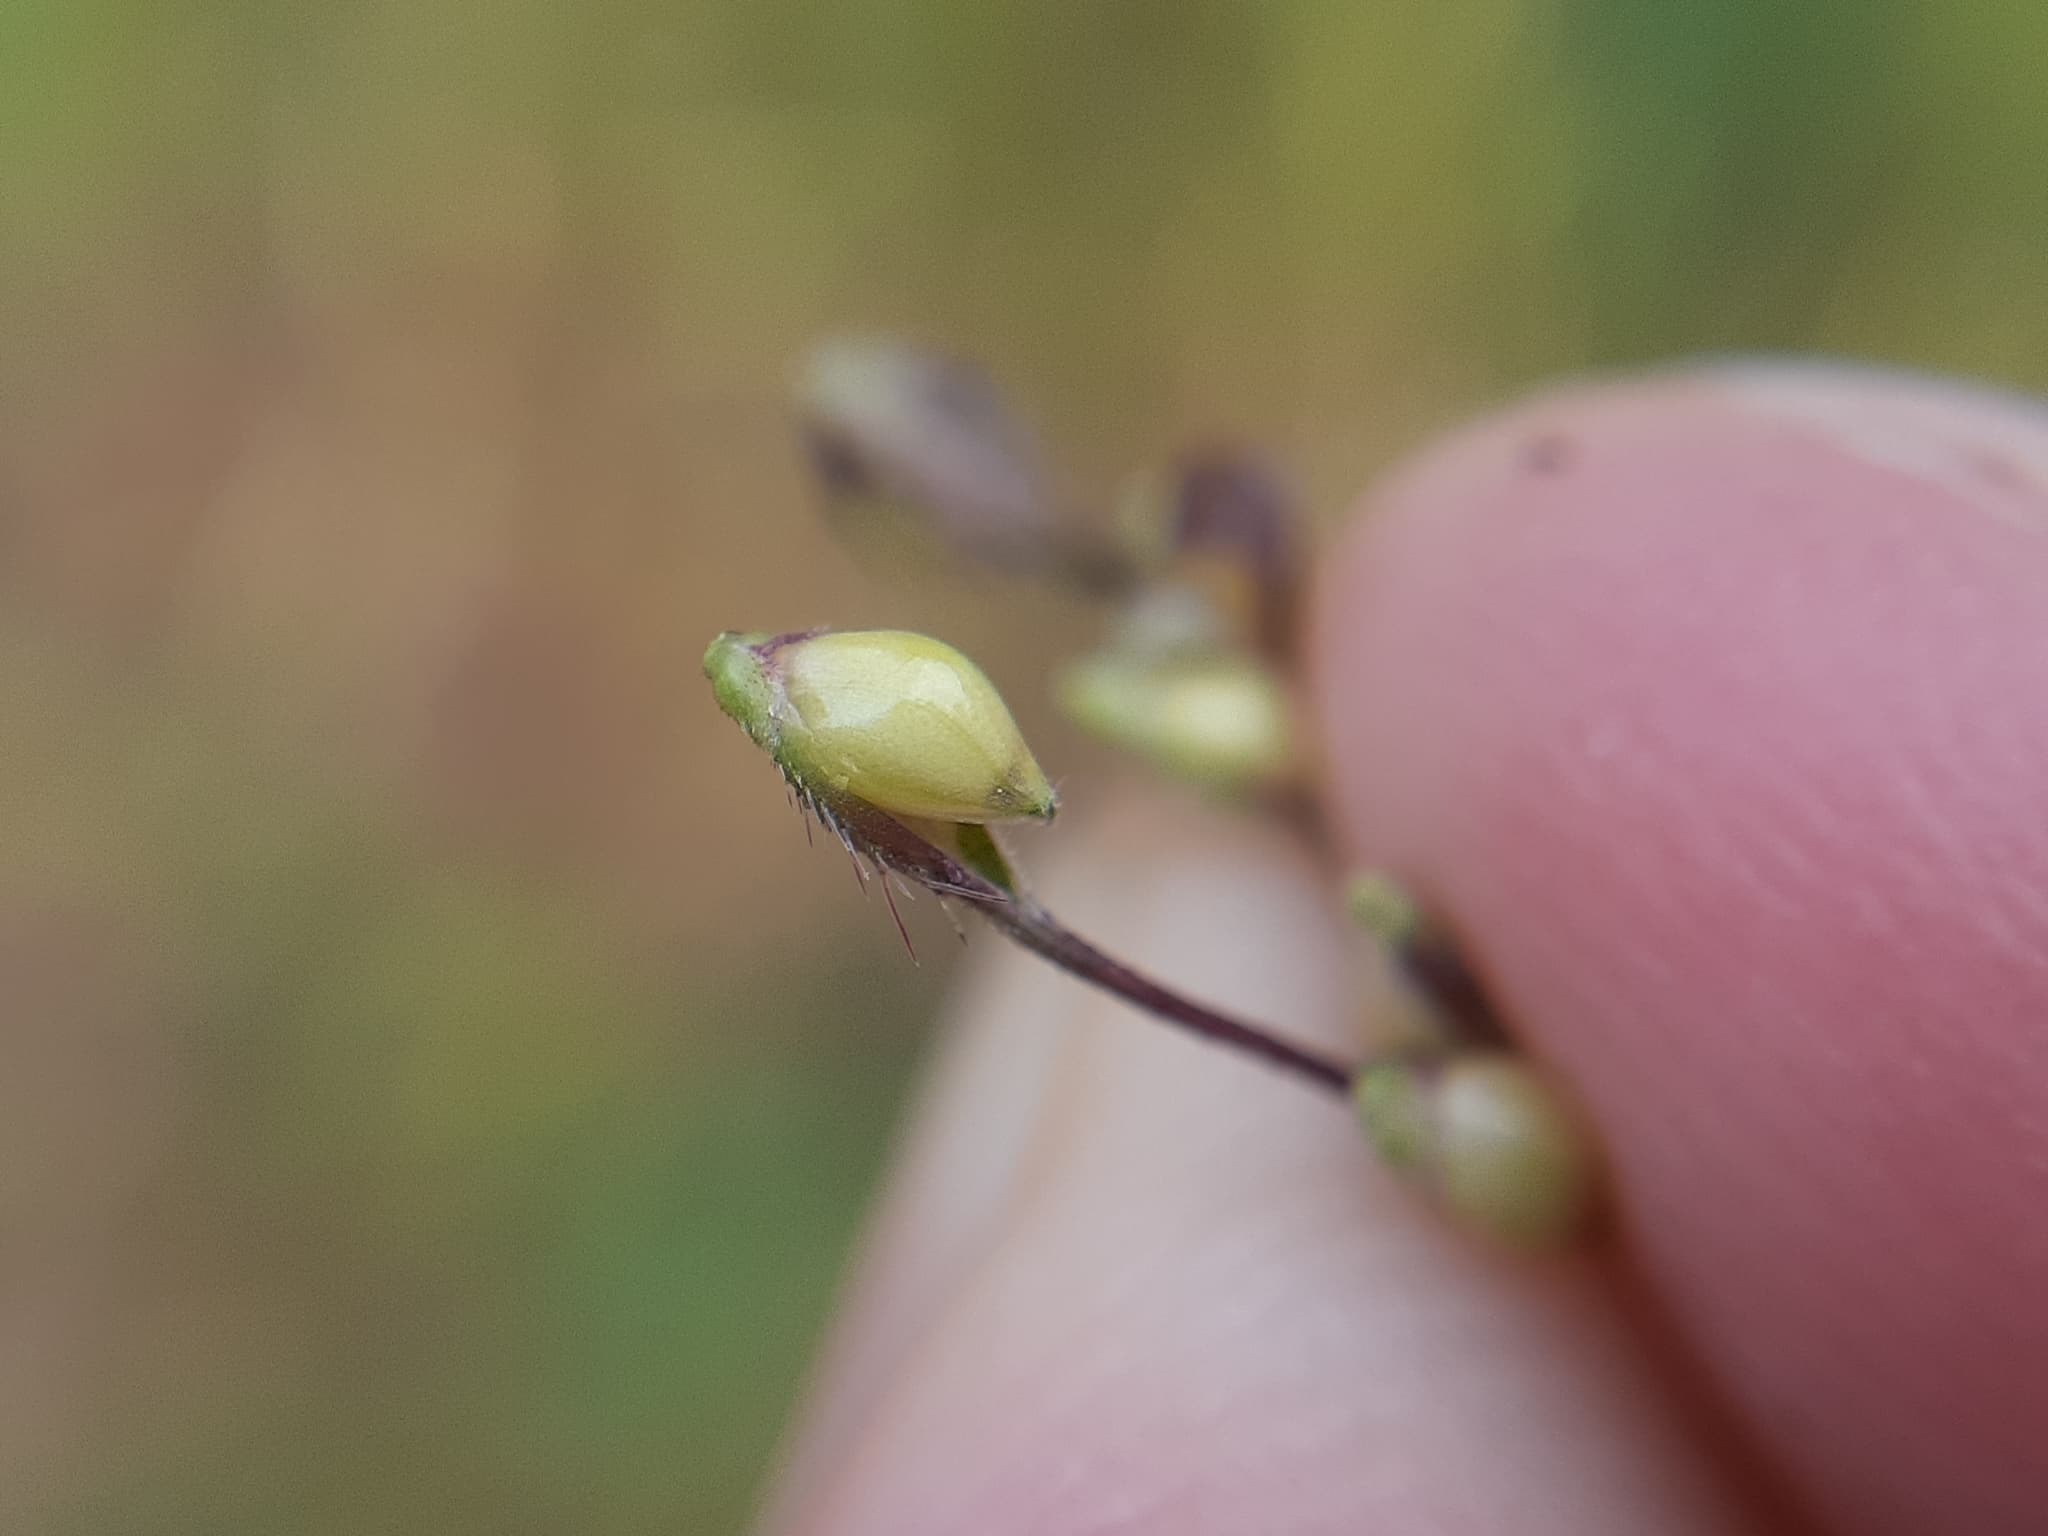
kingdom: Plantae
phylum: Tracheophyta
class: Liliopsida
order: Poales
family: Poaceae
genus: Echinochloa
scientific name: Echinochloa muricata
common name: American barnyard grass
